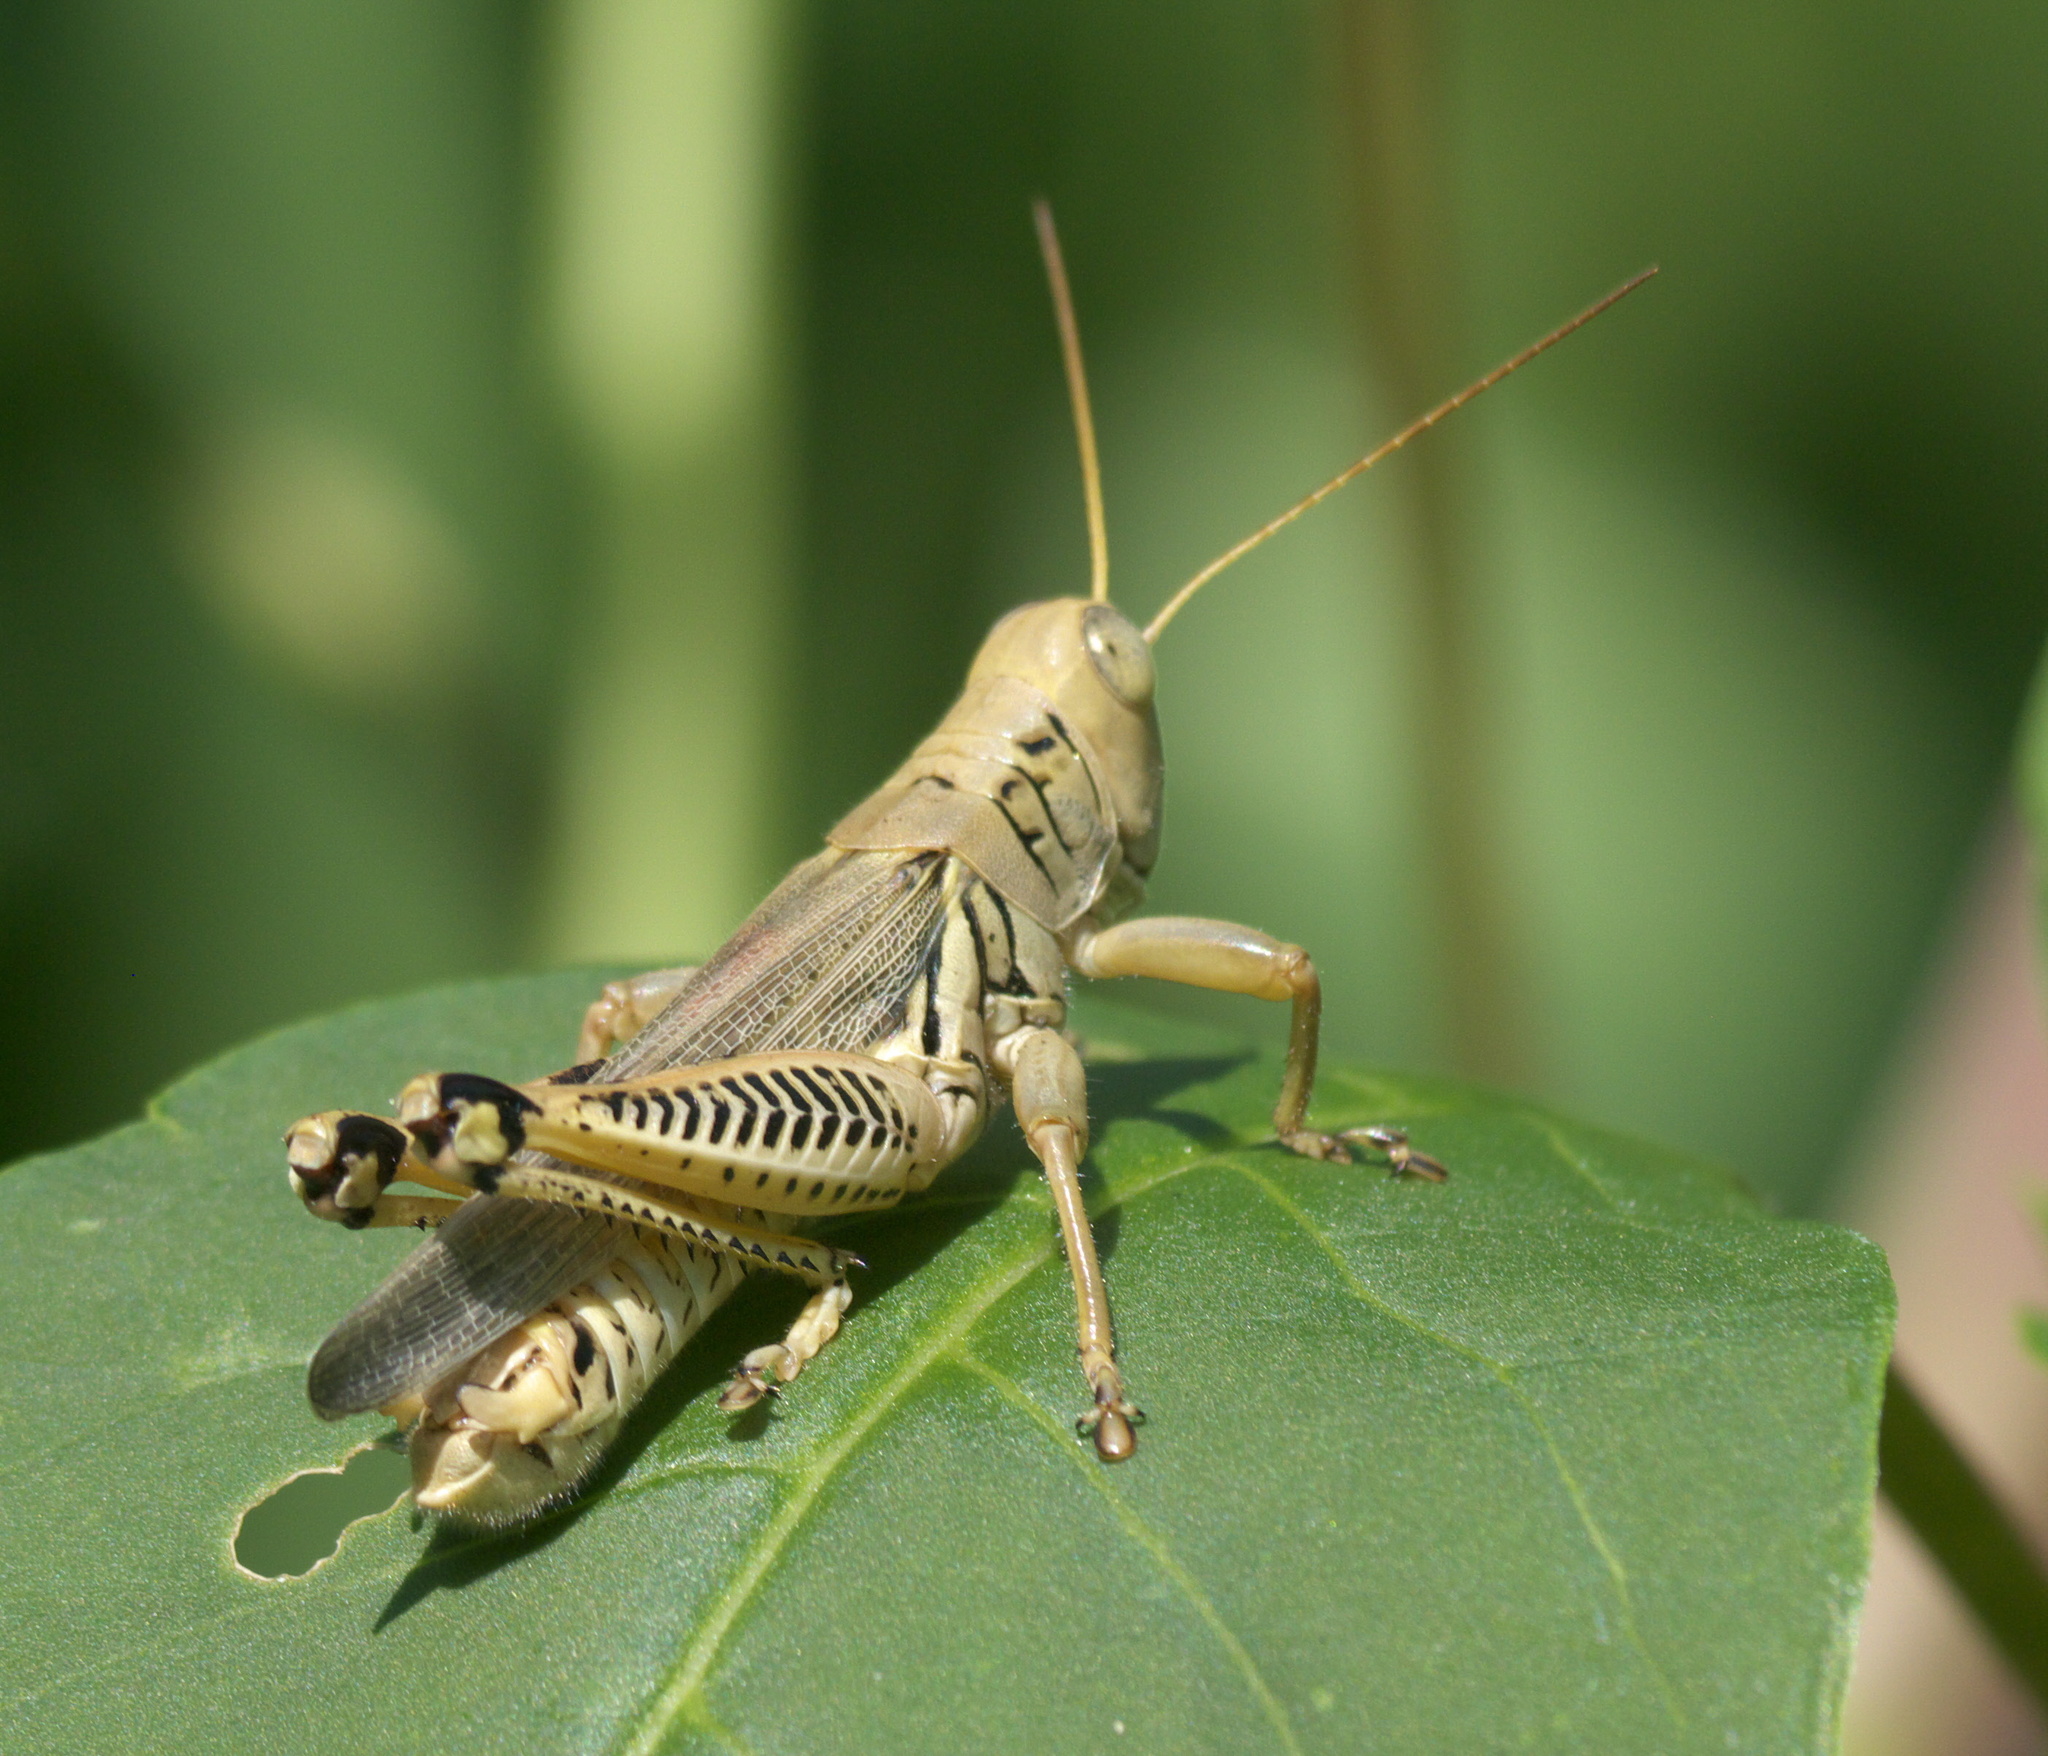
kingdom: Animalia
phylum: Arthropoda
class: Insecta
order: Orthoptera
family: Acrididae
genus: Melanoplus
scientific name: Melanoplus differentialis
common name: Differential grasshopper
